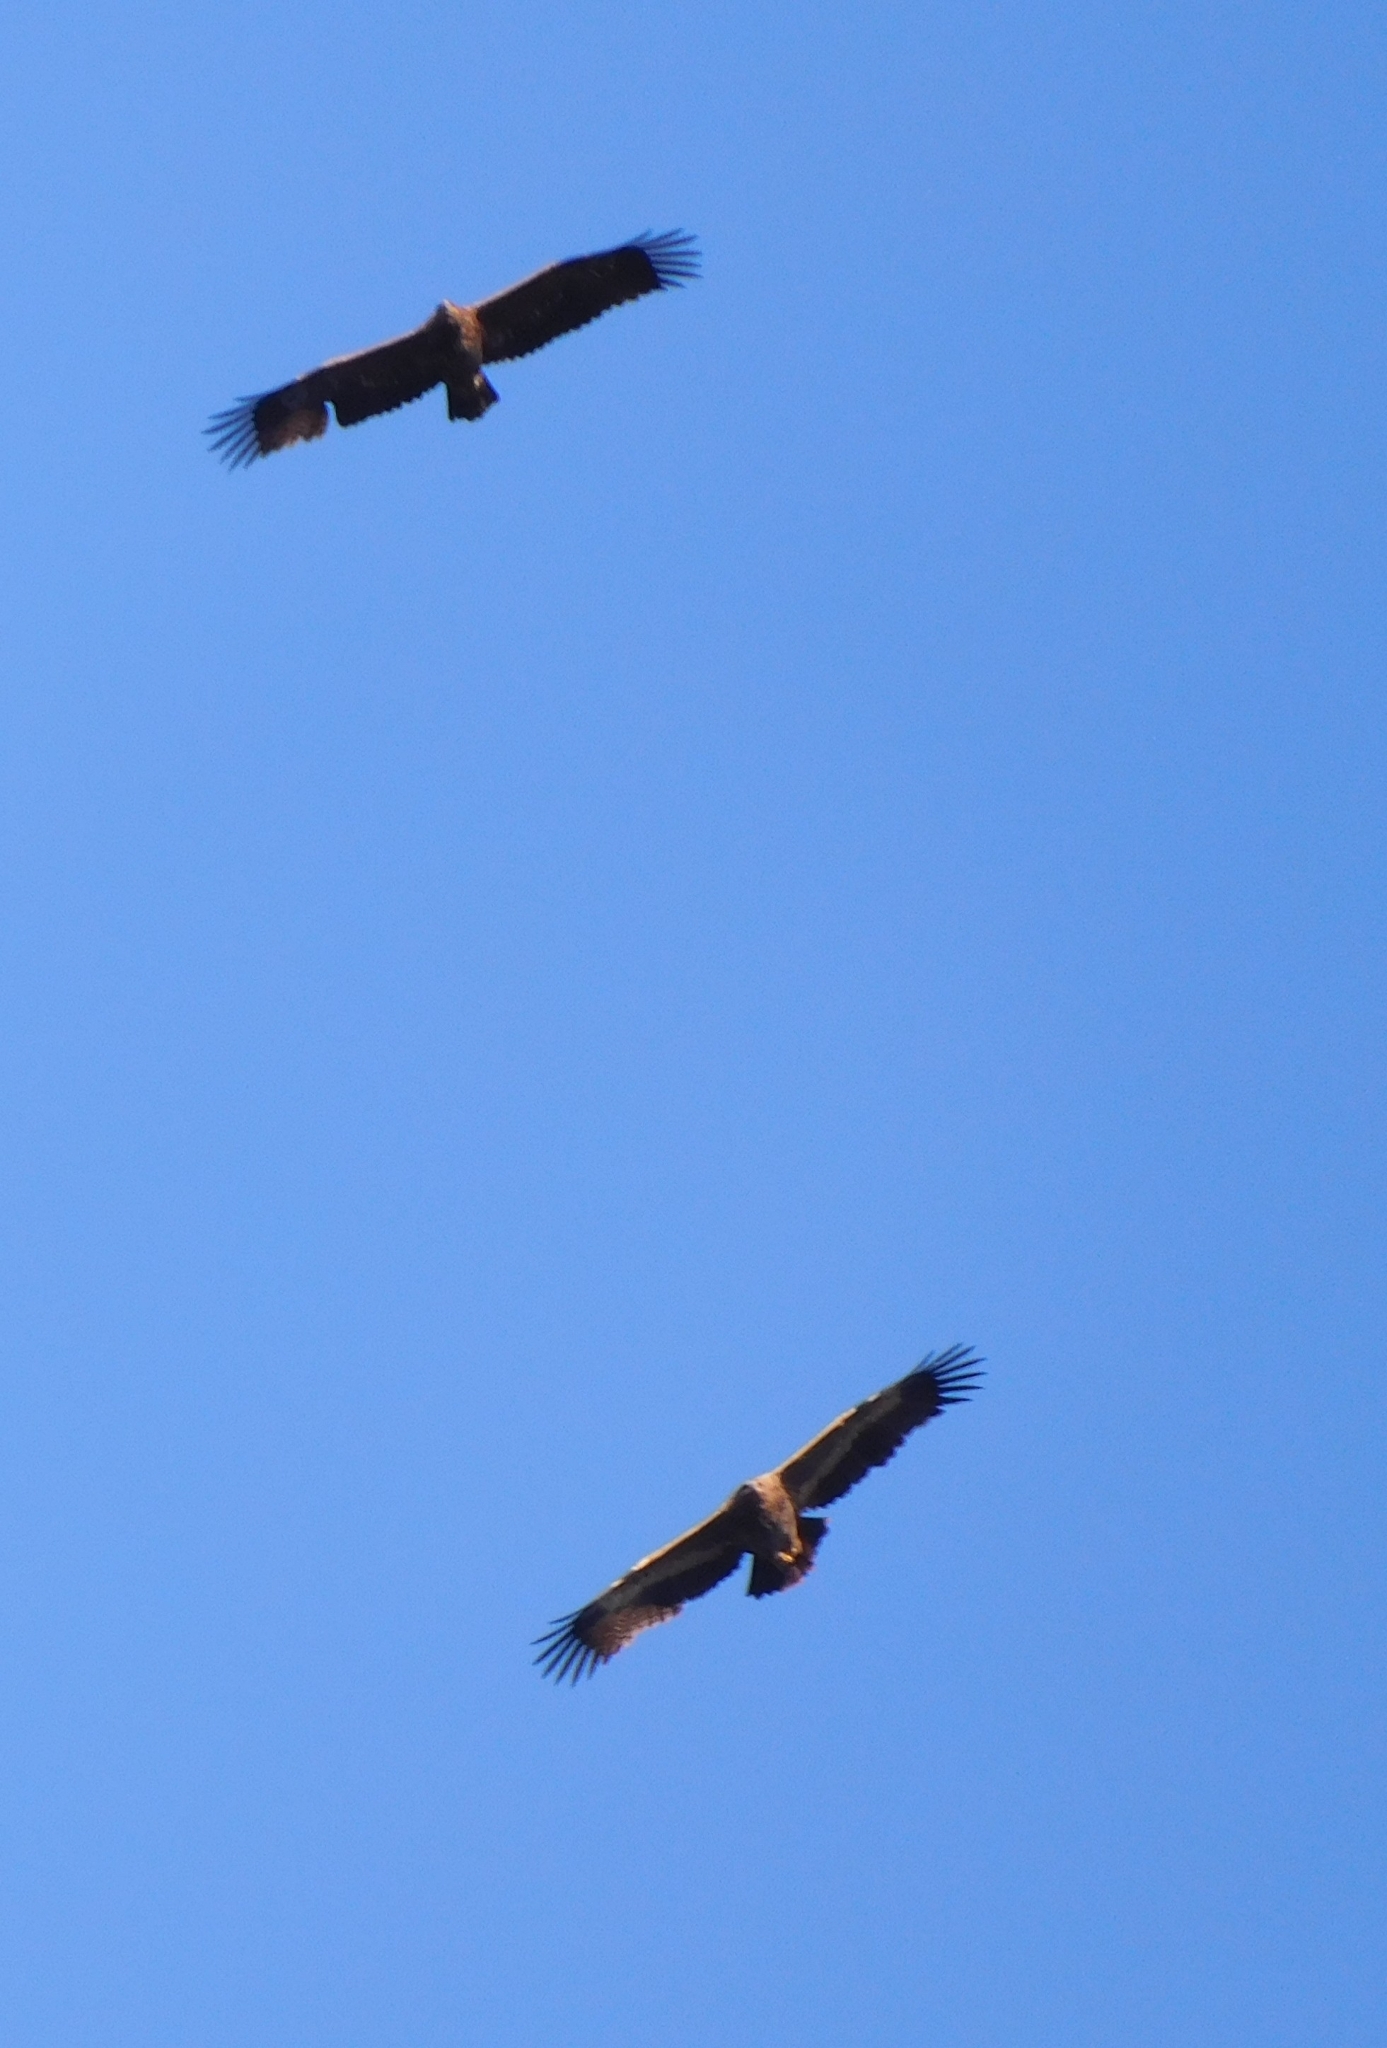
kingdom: Animalia
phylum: Chordata
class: Aves
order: Accipitriformes
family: Accipitridae
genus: Aquila
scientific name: Aquila nipalensis
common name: Steppe eagle
